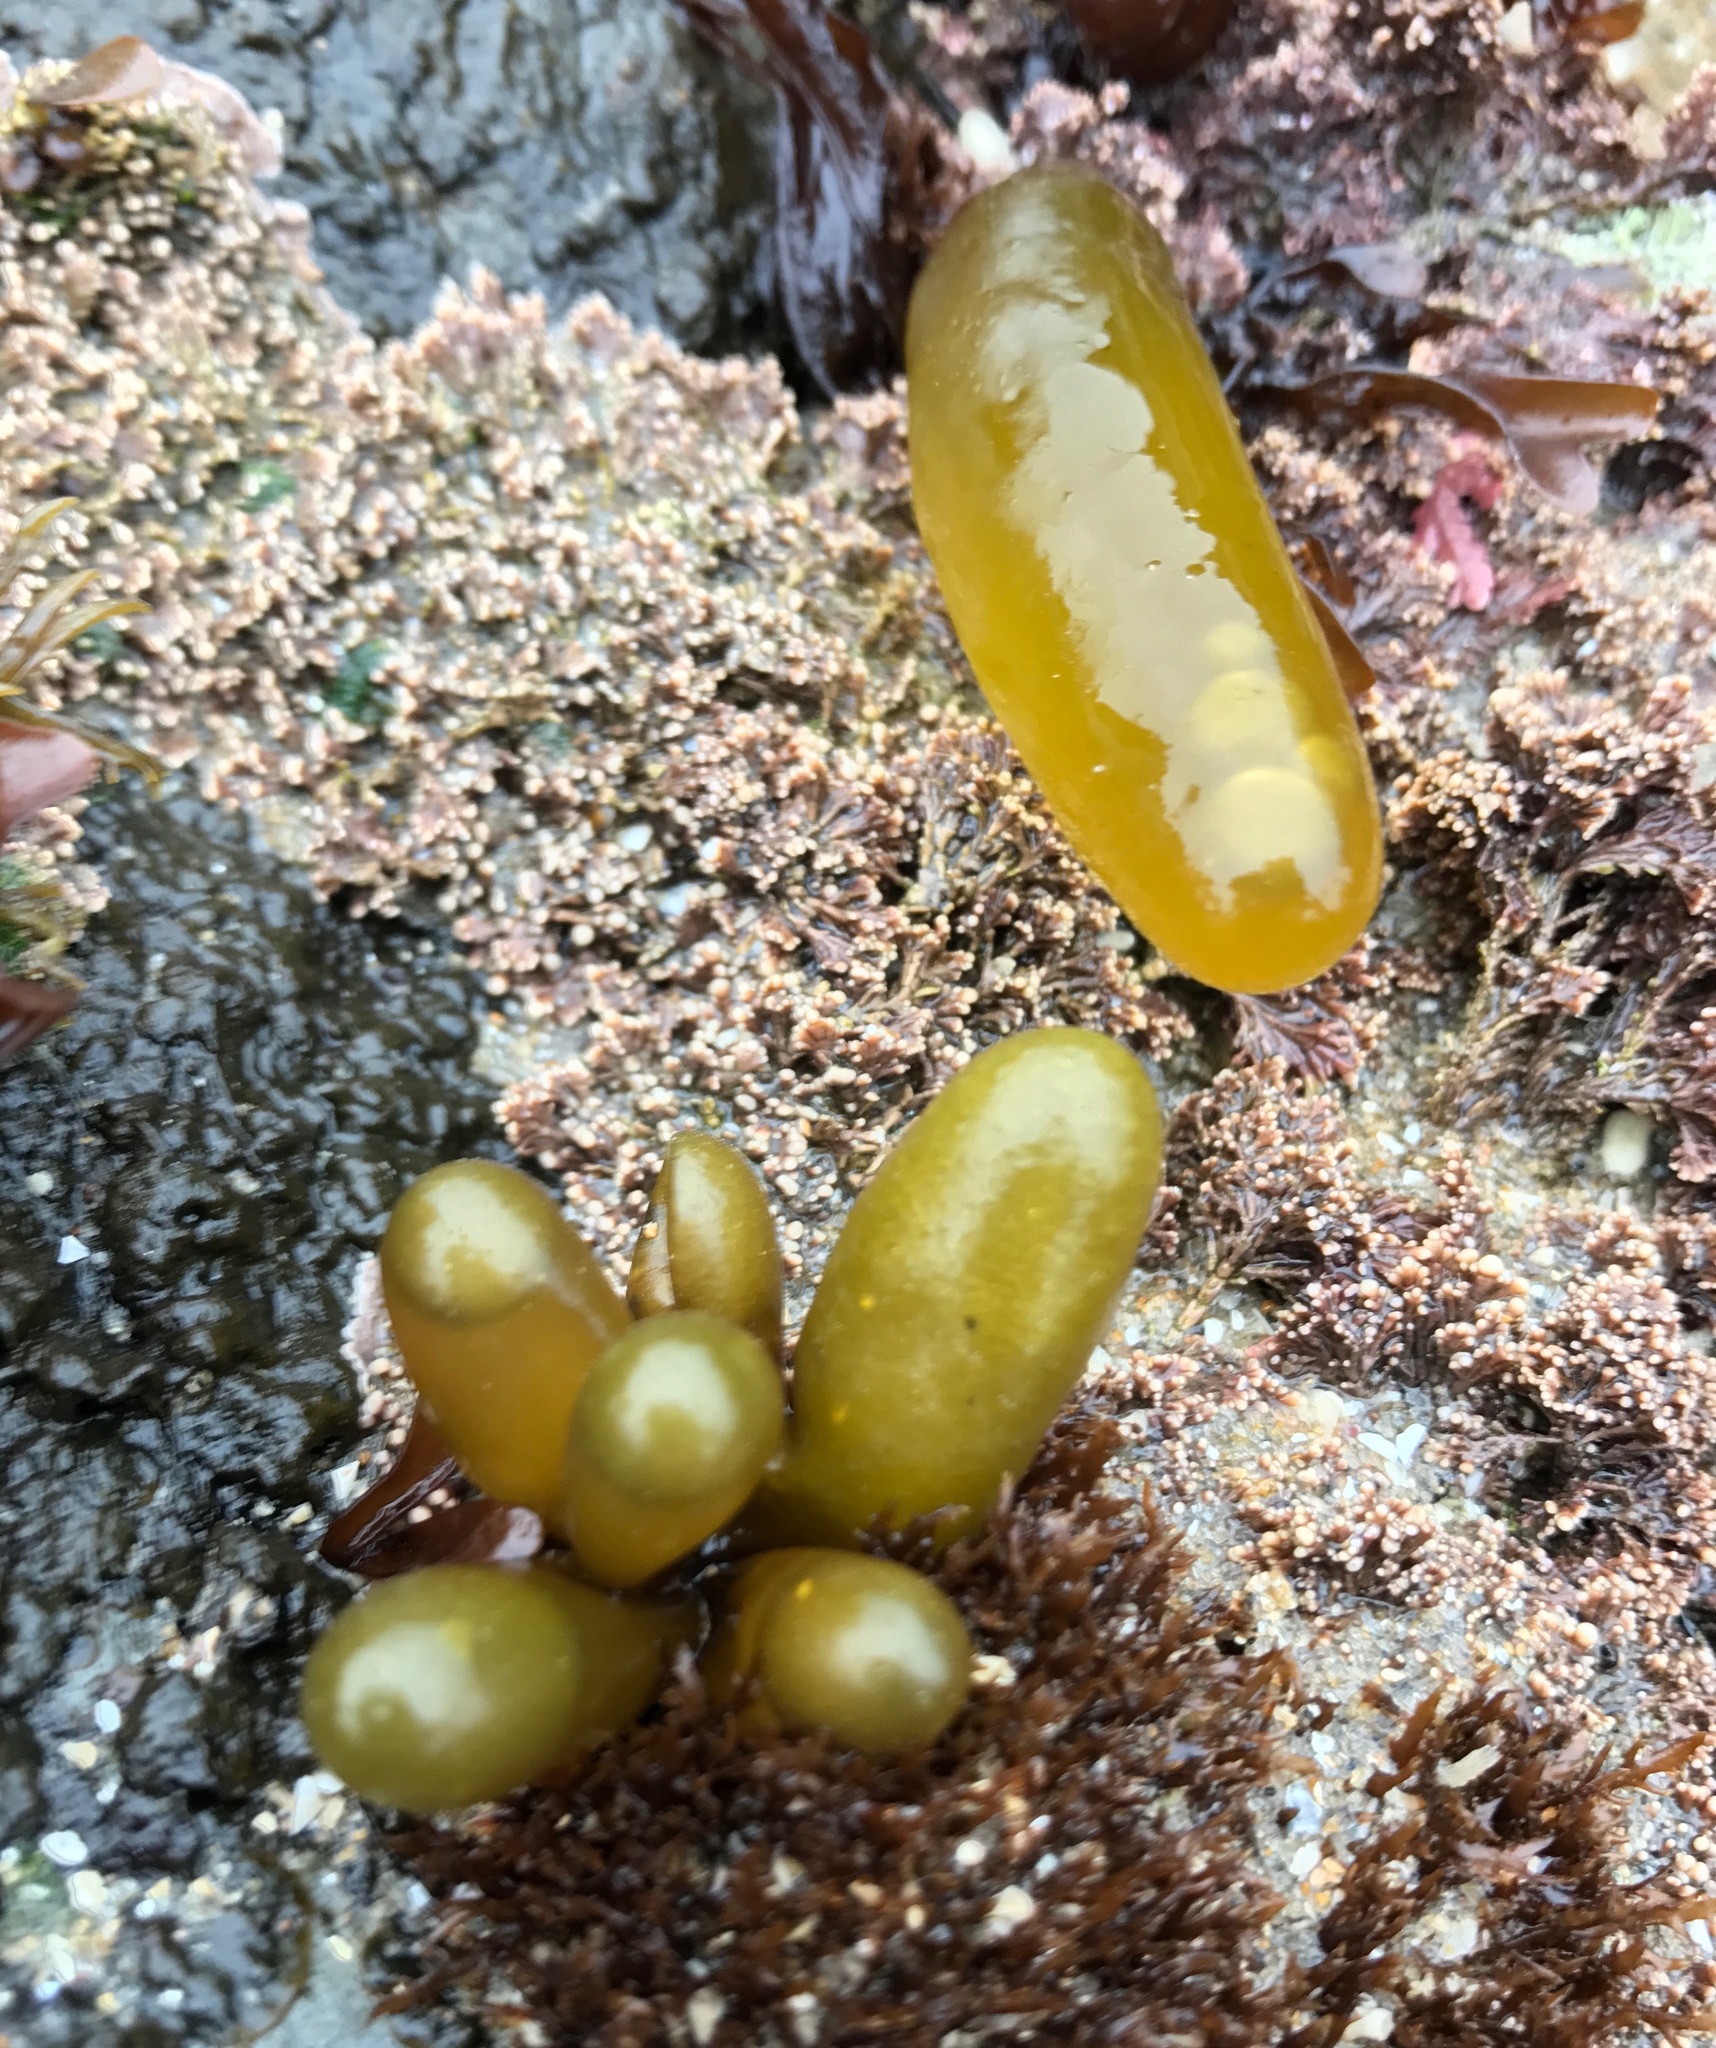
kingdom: Plantae
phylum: Rhodophyta
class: Florideophyceae
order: Palmariales
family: Palmariaceae
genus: Halosaccion
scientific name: Halosaccion glandiforme
